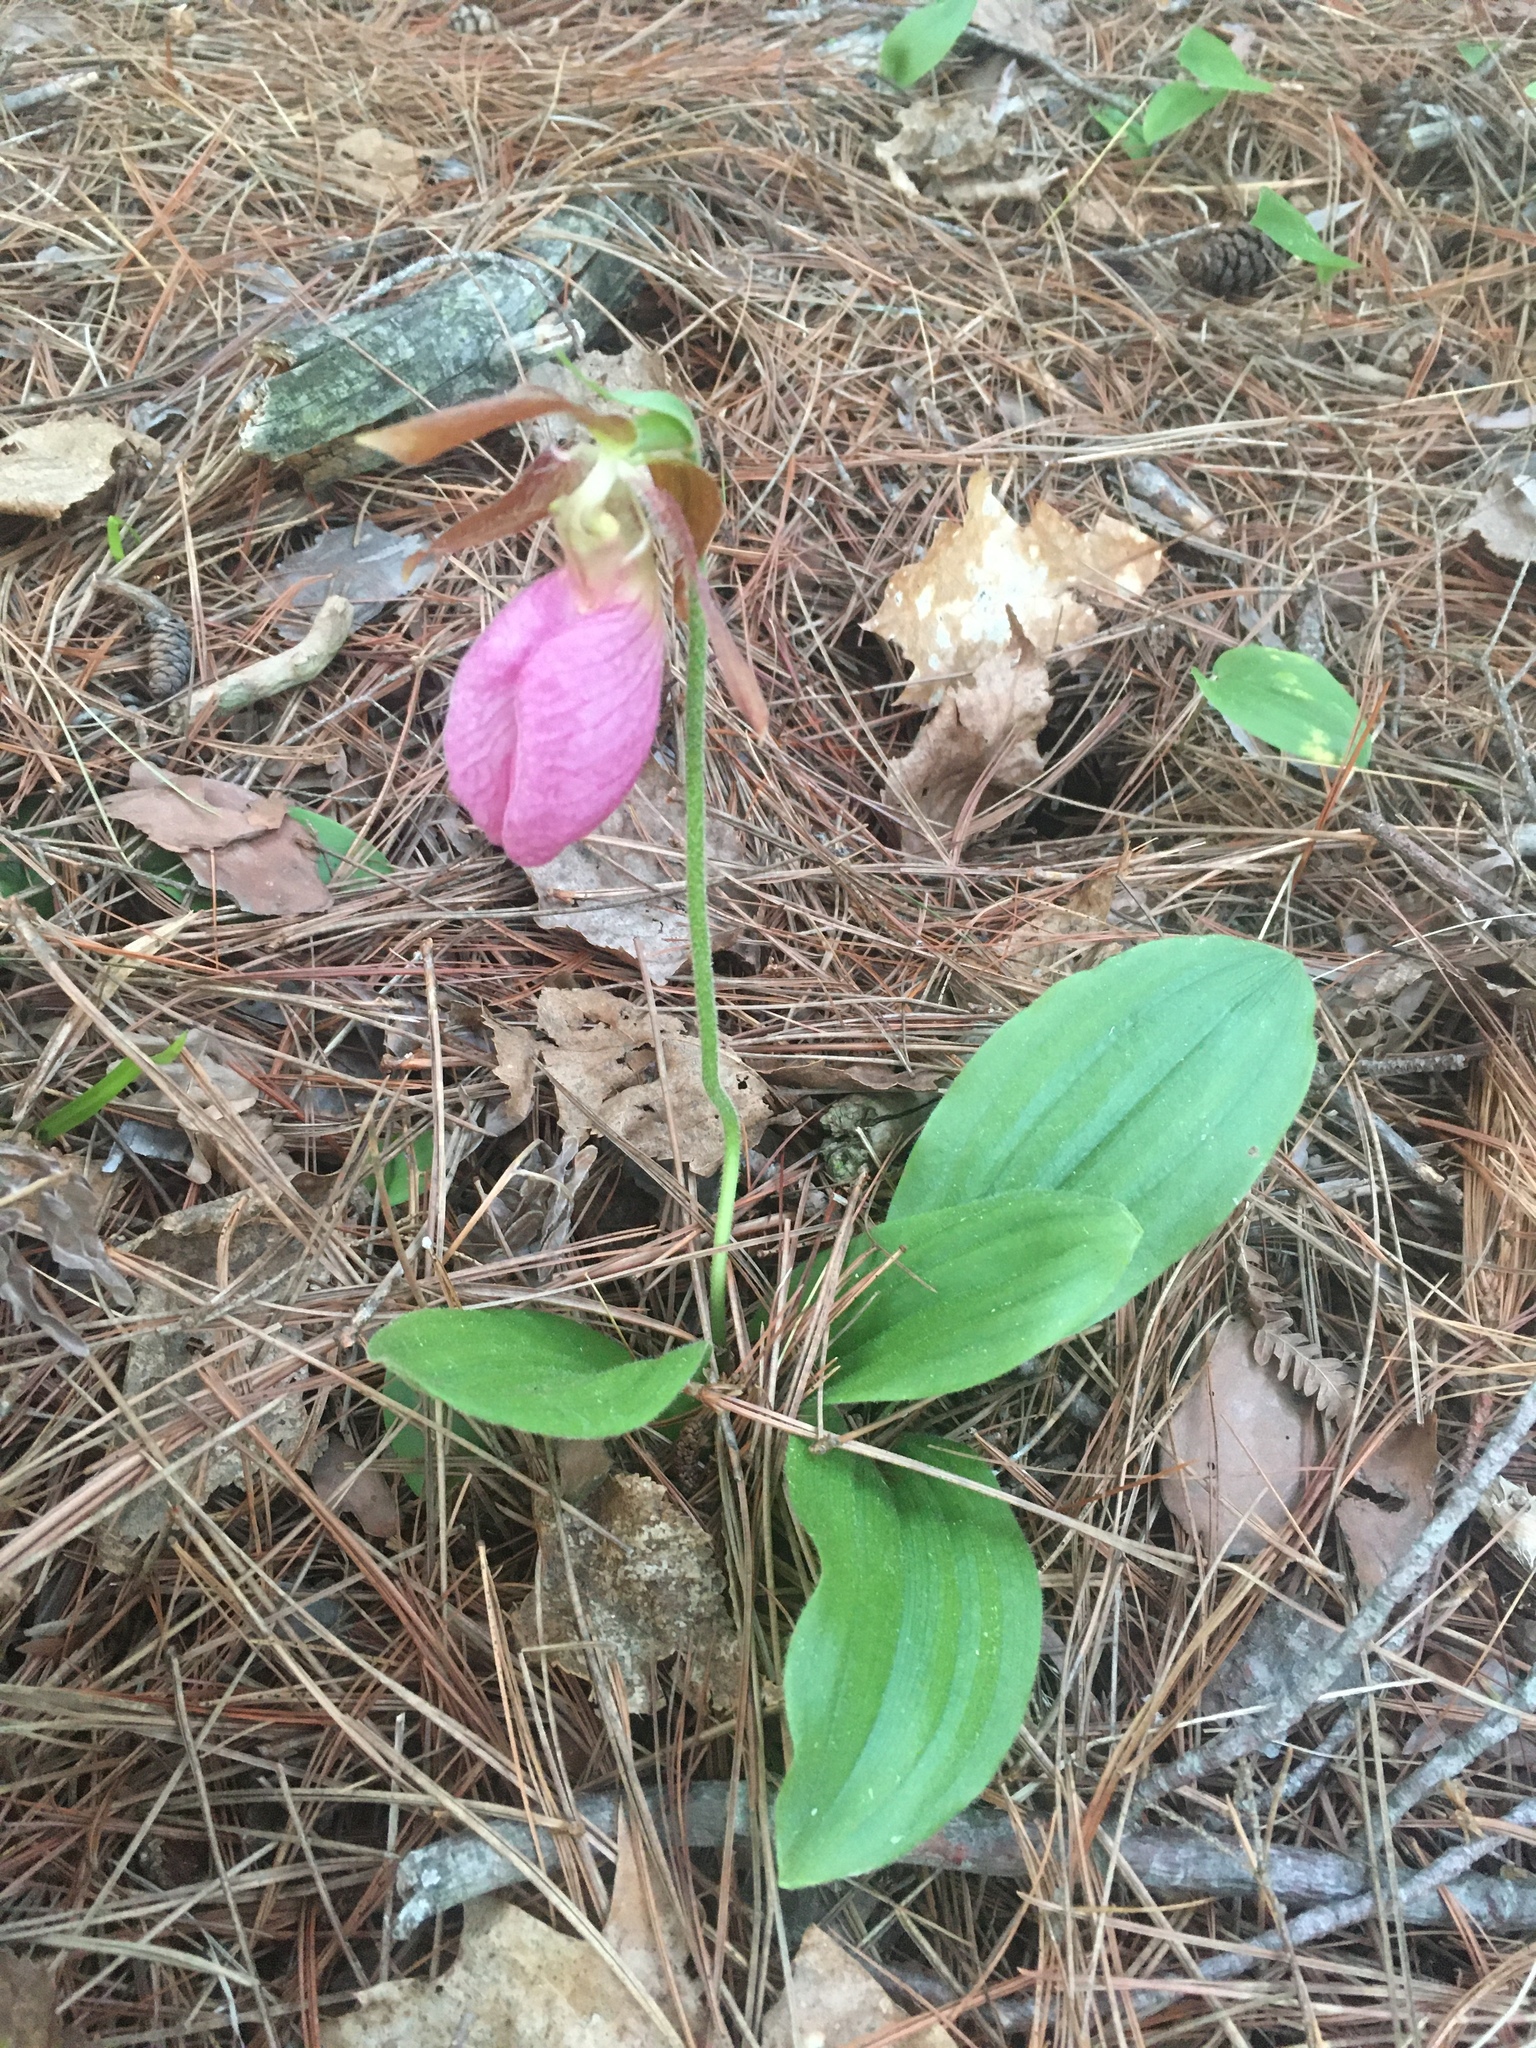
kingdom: Plantae
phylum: Tracheophyta
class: Liliopsida
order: Asparagales
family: Orchidaceae
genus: Cypripedium
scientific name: Cypripedium acaule
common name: Pink lady's-slipper
